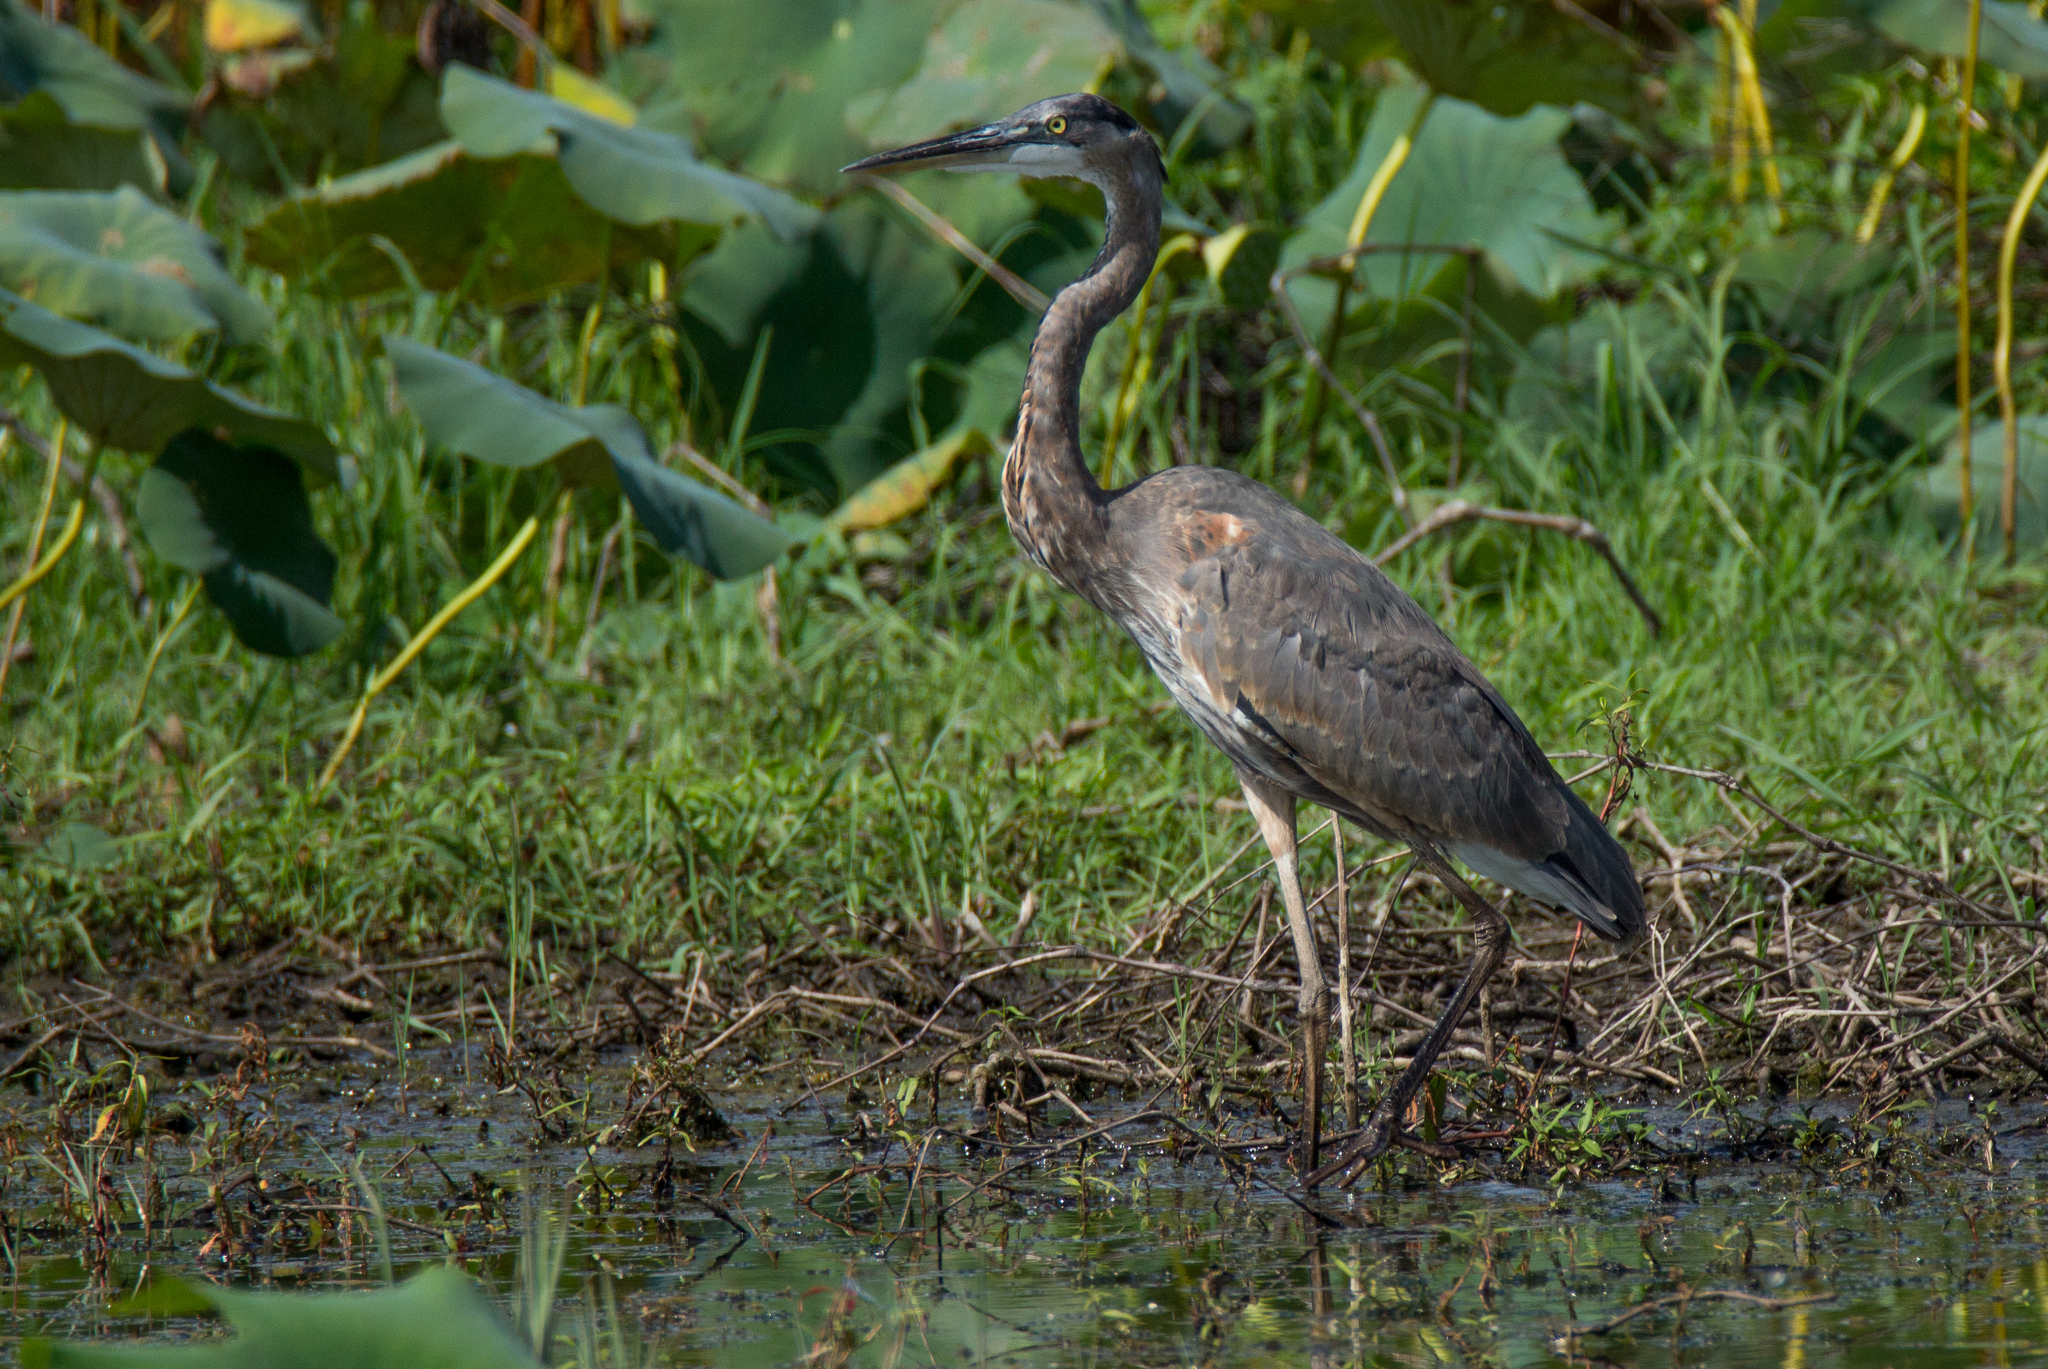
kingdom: Animalia
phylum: Chordata
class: Aves
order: Pelecaniformes
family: Ardeidae
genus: Ardea
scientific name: Ardea herodias
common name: Great blue heron
